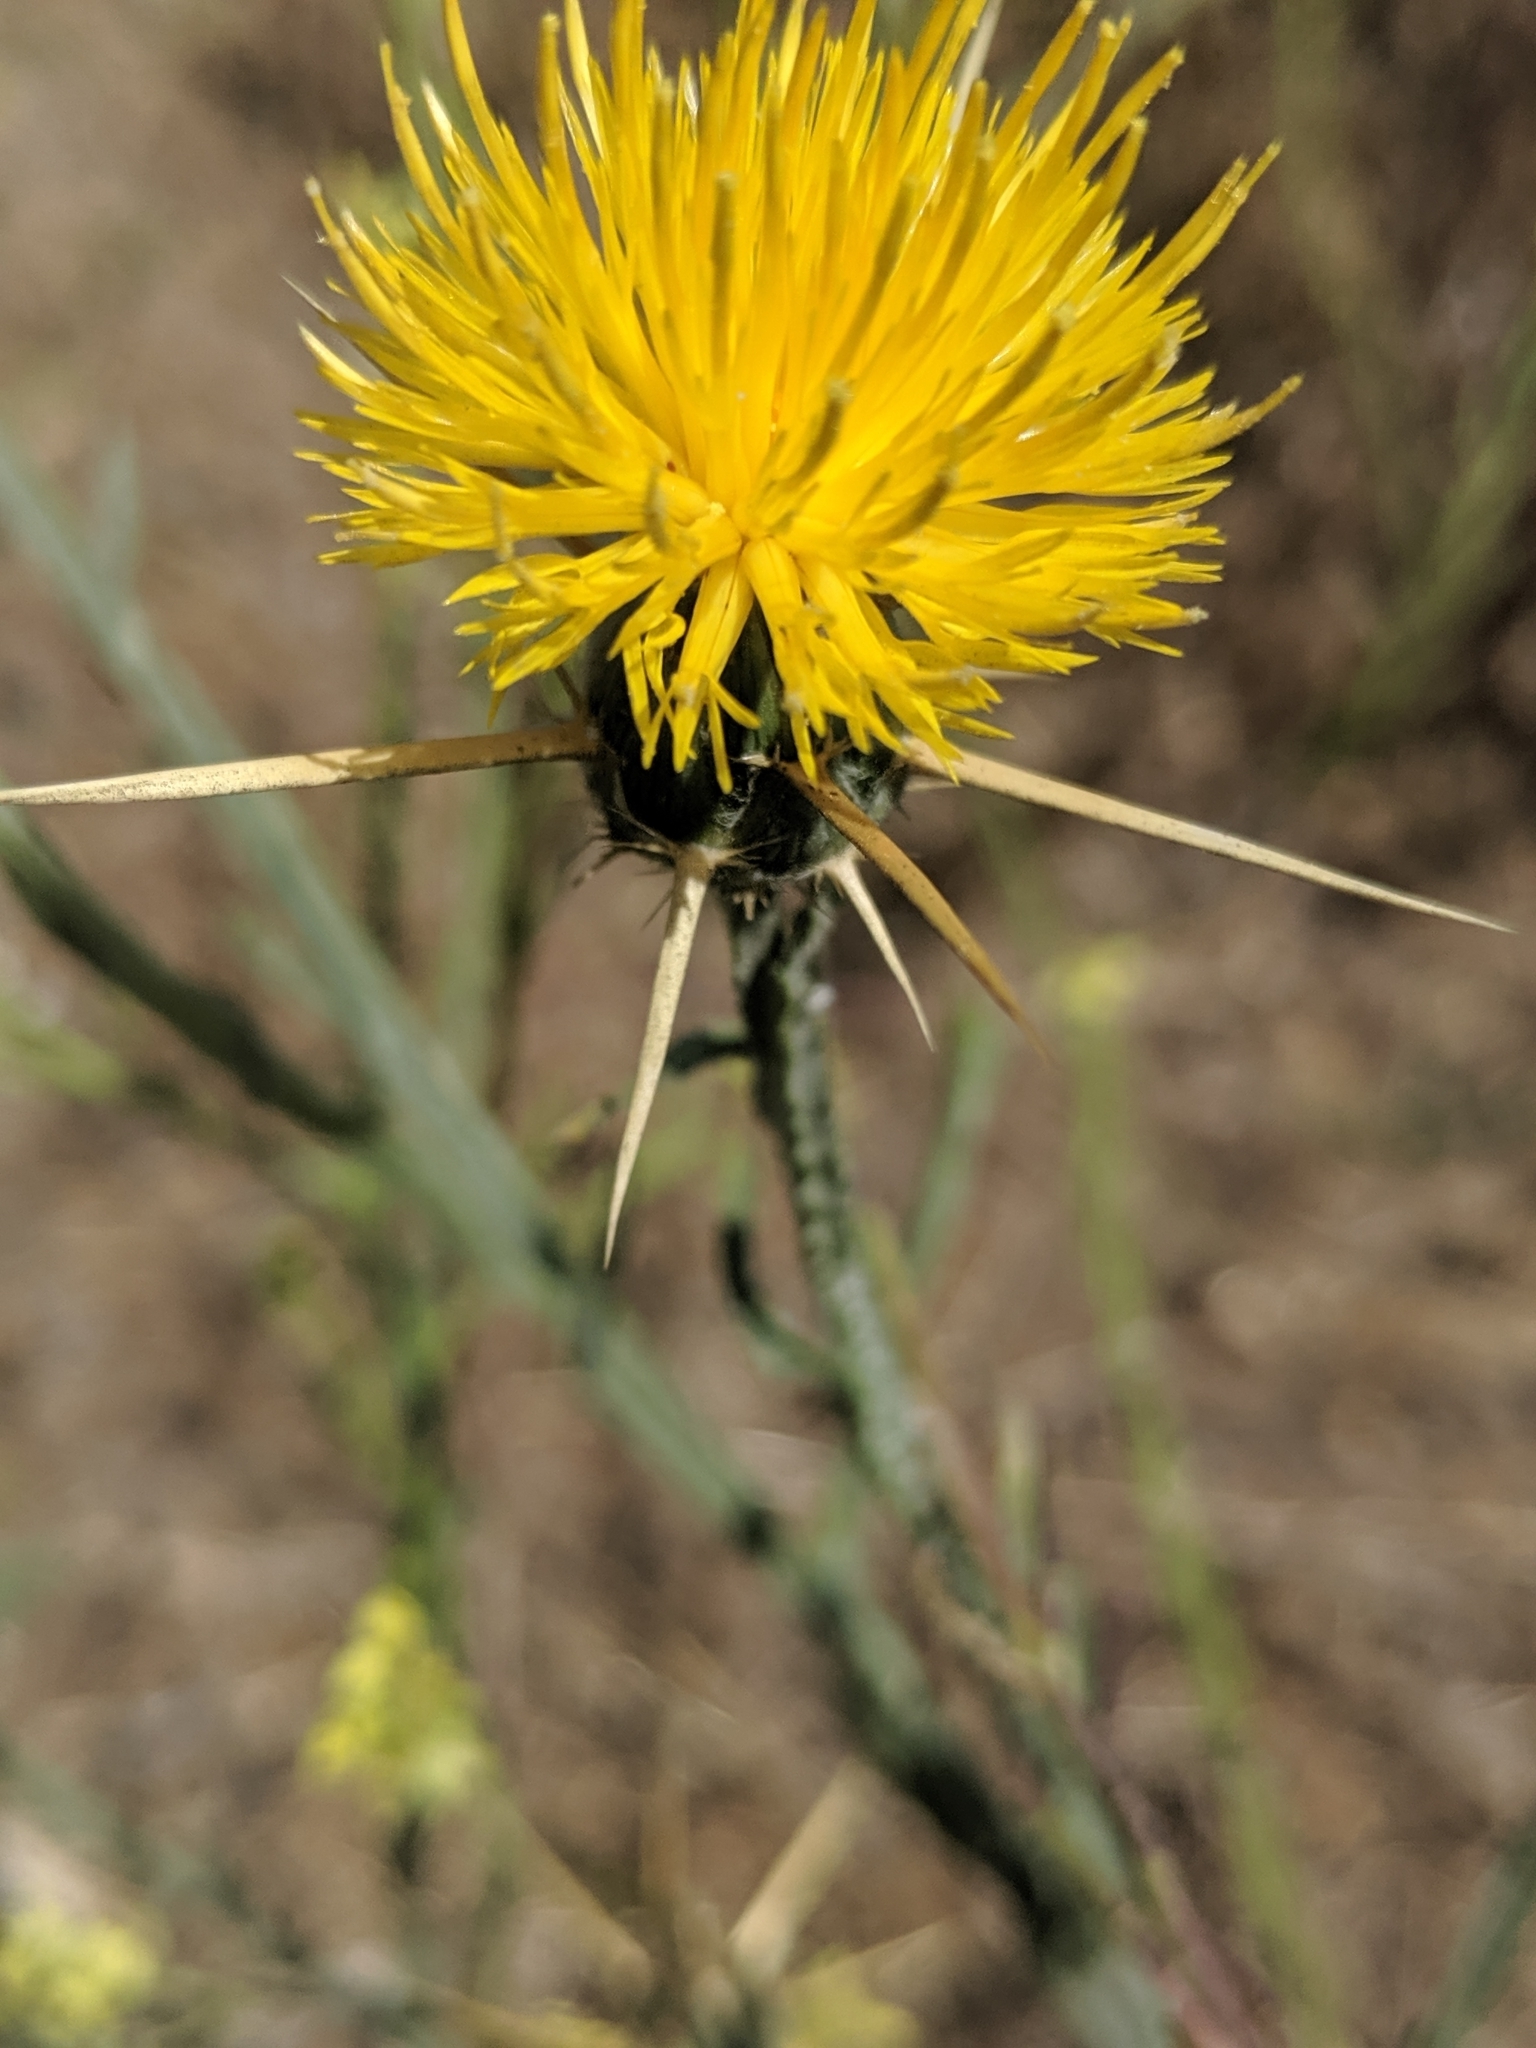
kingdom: Plantae
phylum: Tracheophyta
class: Magnoliopsida
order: Asterales
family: Asteraceae
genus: Centaurea
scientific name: Centaurea solstitialis
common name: Yellow star-thistle
